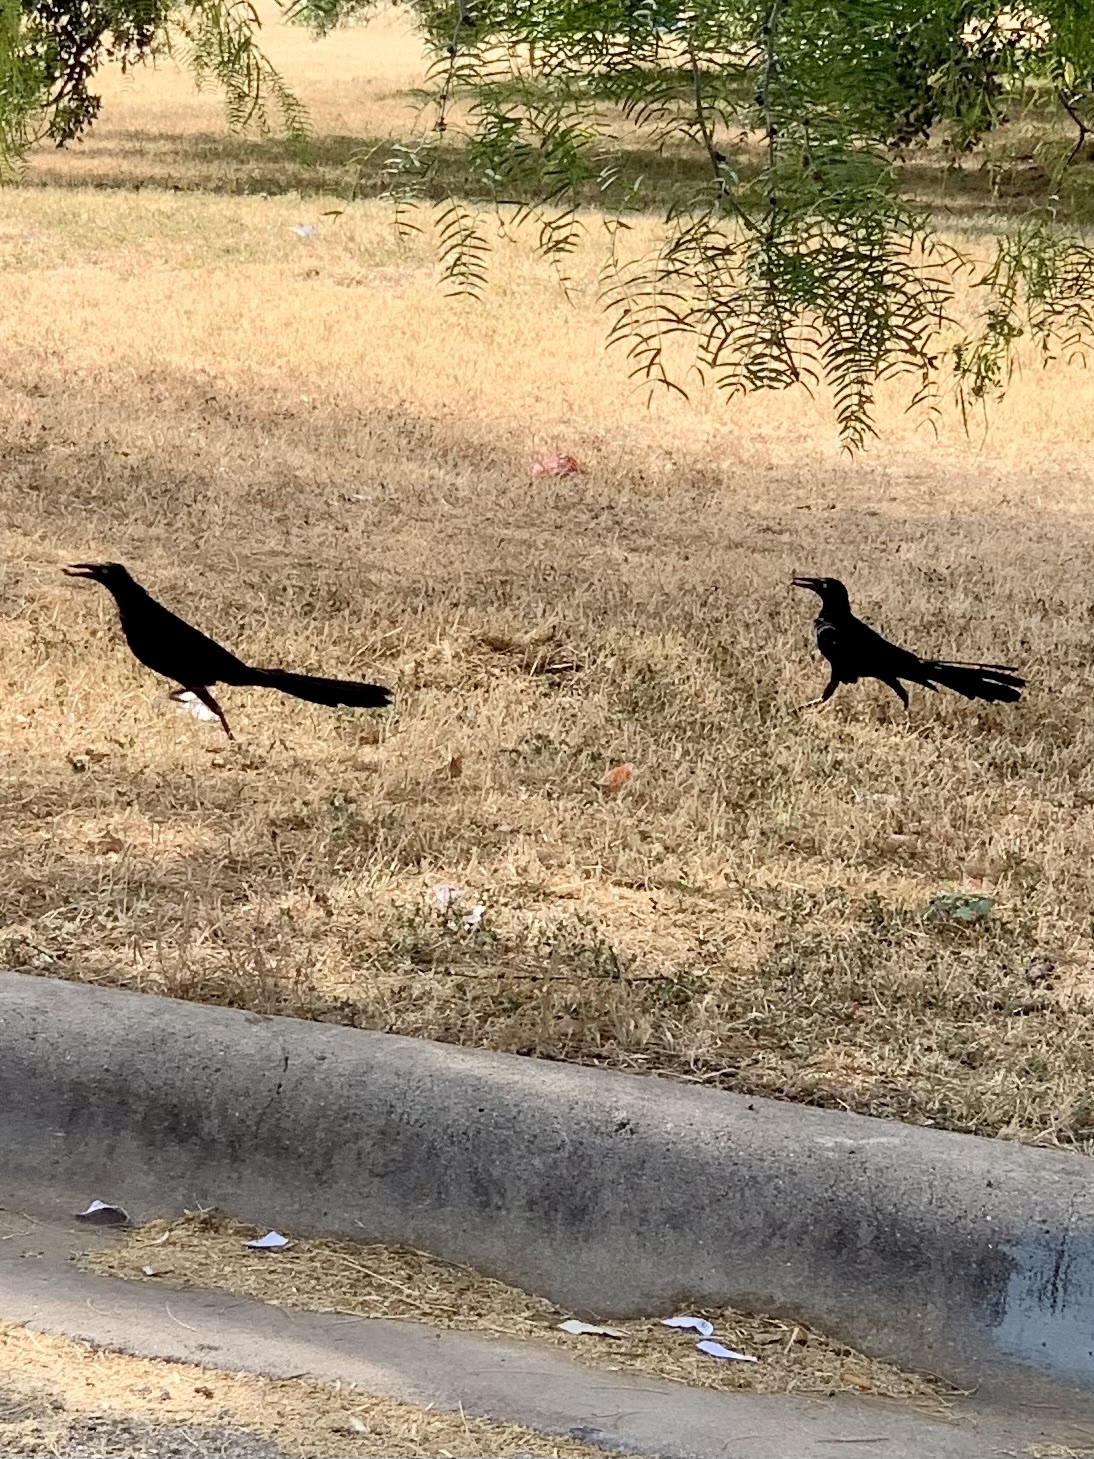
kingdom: Animalia
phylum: Chordata
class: Aves
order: Passeriformes
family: Icteridae
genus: Quiscalus
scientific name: Quiscalus mexicanus
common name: Great-tailed grackle
